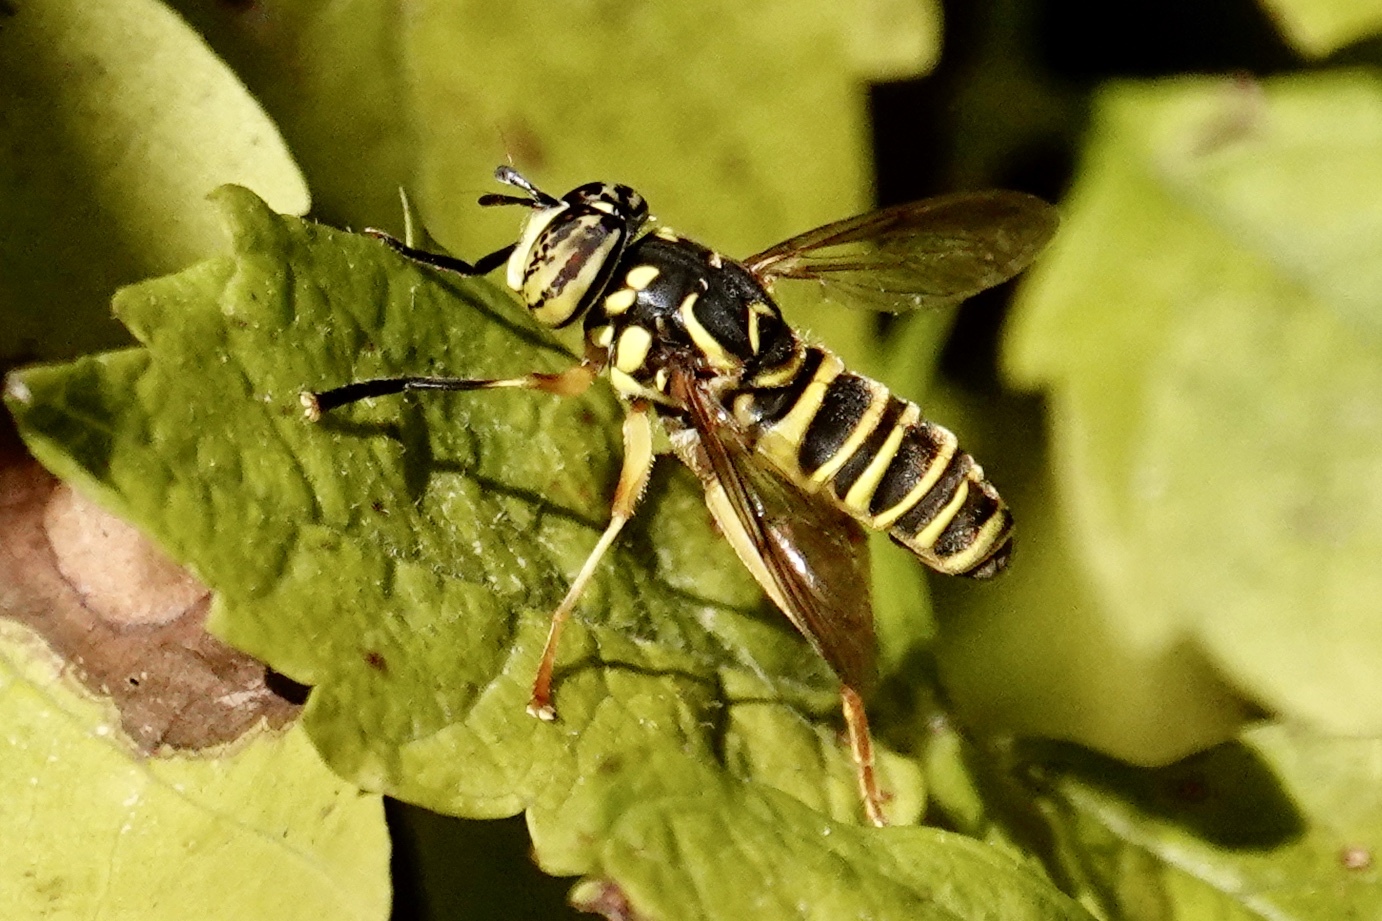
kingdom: Animalia
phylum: Arthropoda
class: Insecta
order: Diptera
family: Syrphidae
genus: Spilomyia
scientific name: Spilomyia longicornis
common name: Eastern hornet fly
